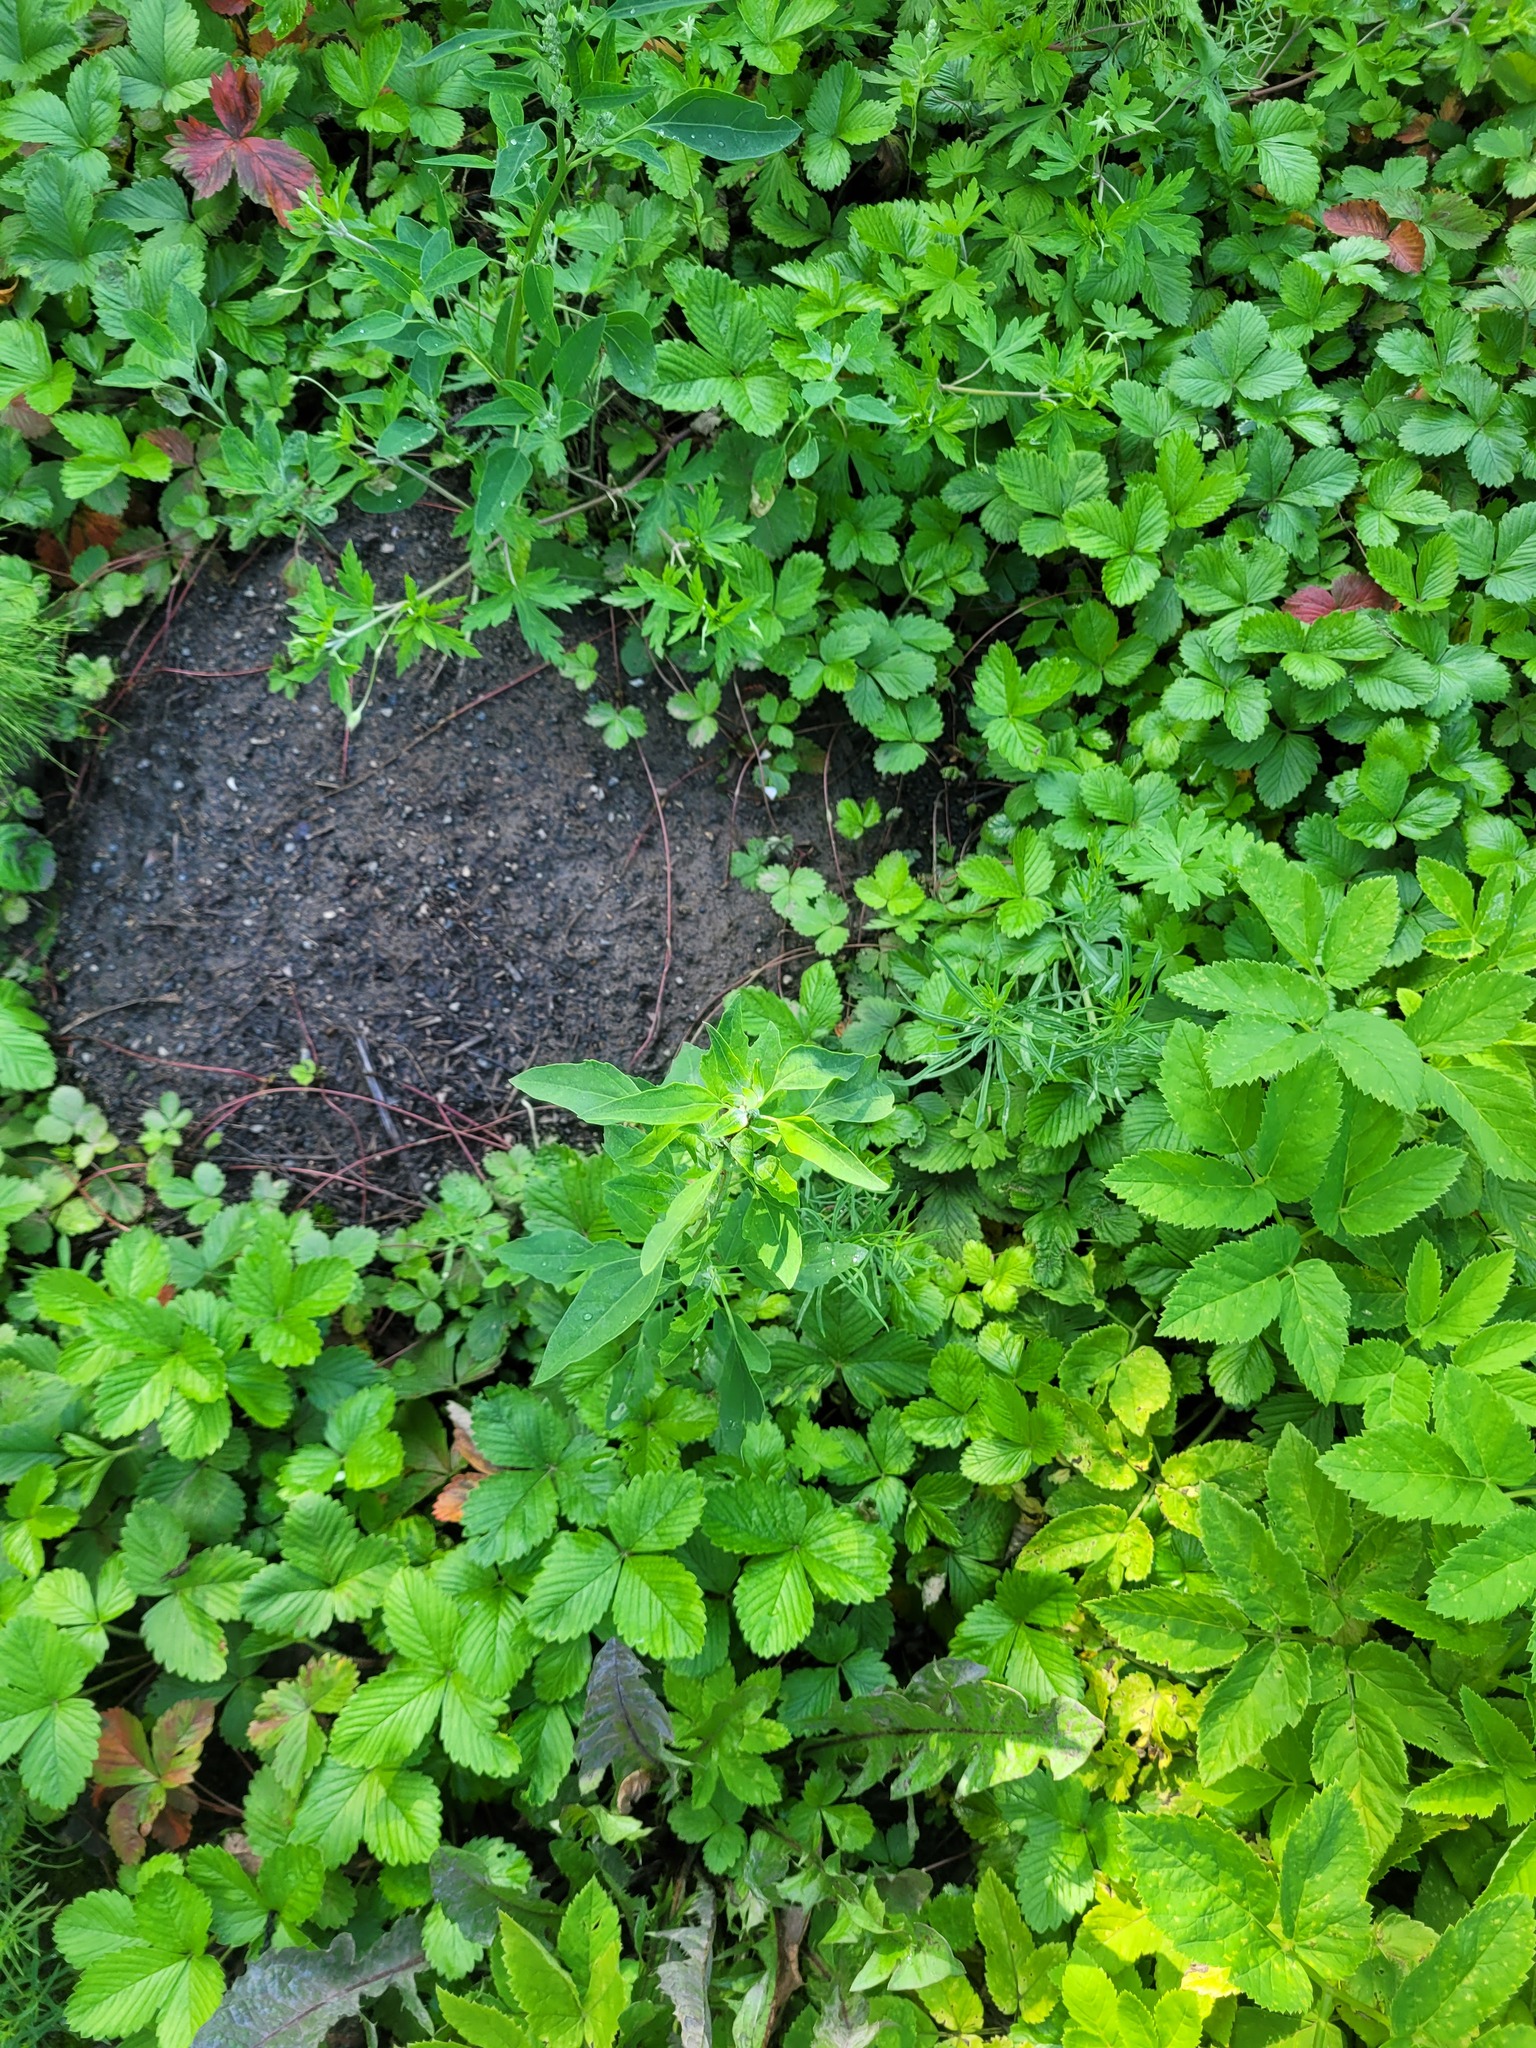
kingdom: Plantae
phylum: Tracheophyta
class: Magnoliopsida
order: Caryophyllales
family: Amaranthaceae
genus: Chenopodium
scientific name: Chenopodium album
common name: Fat-hen
